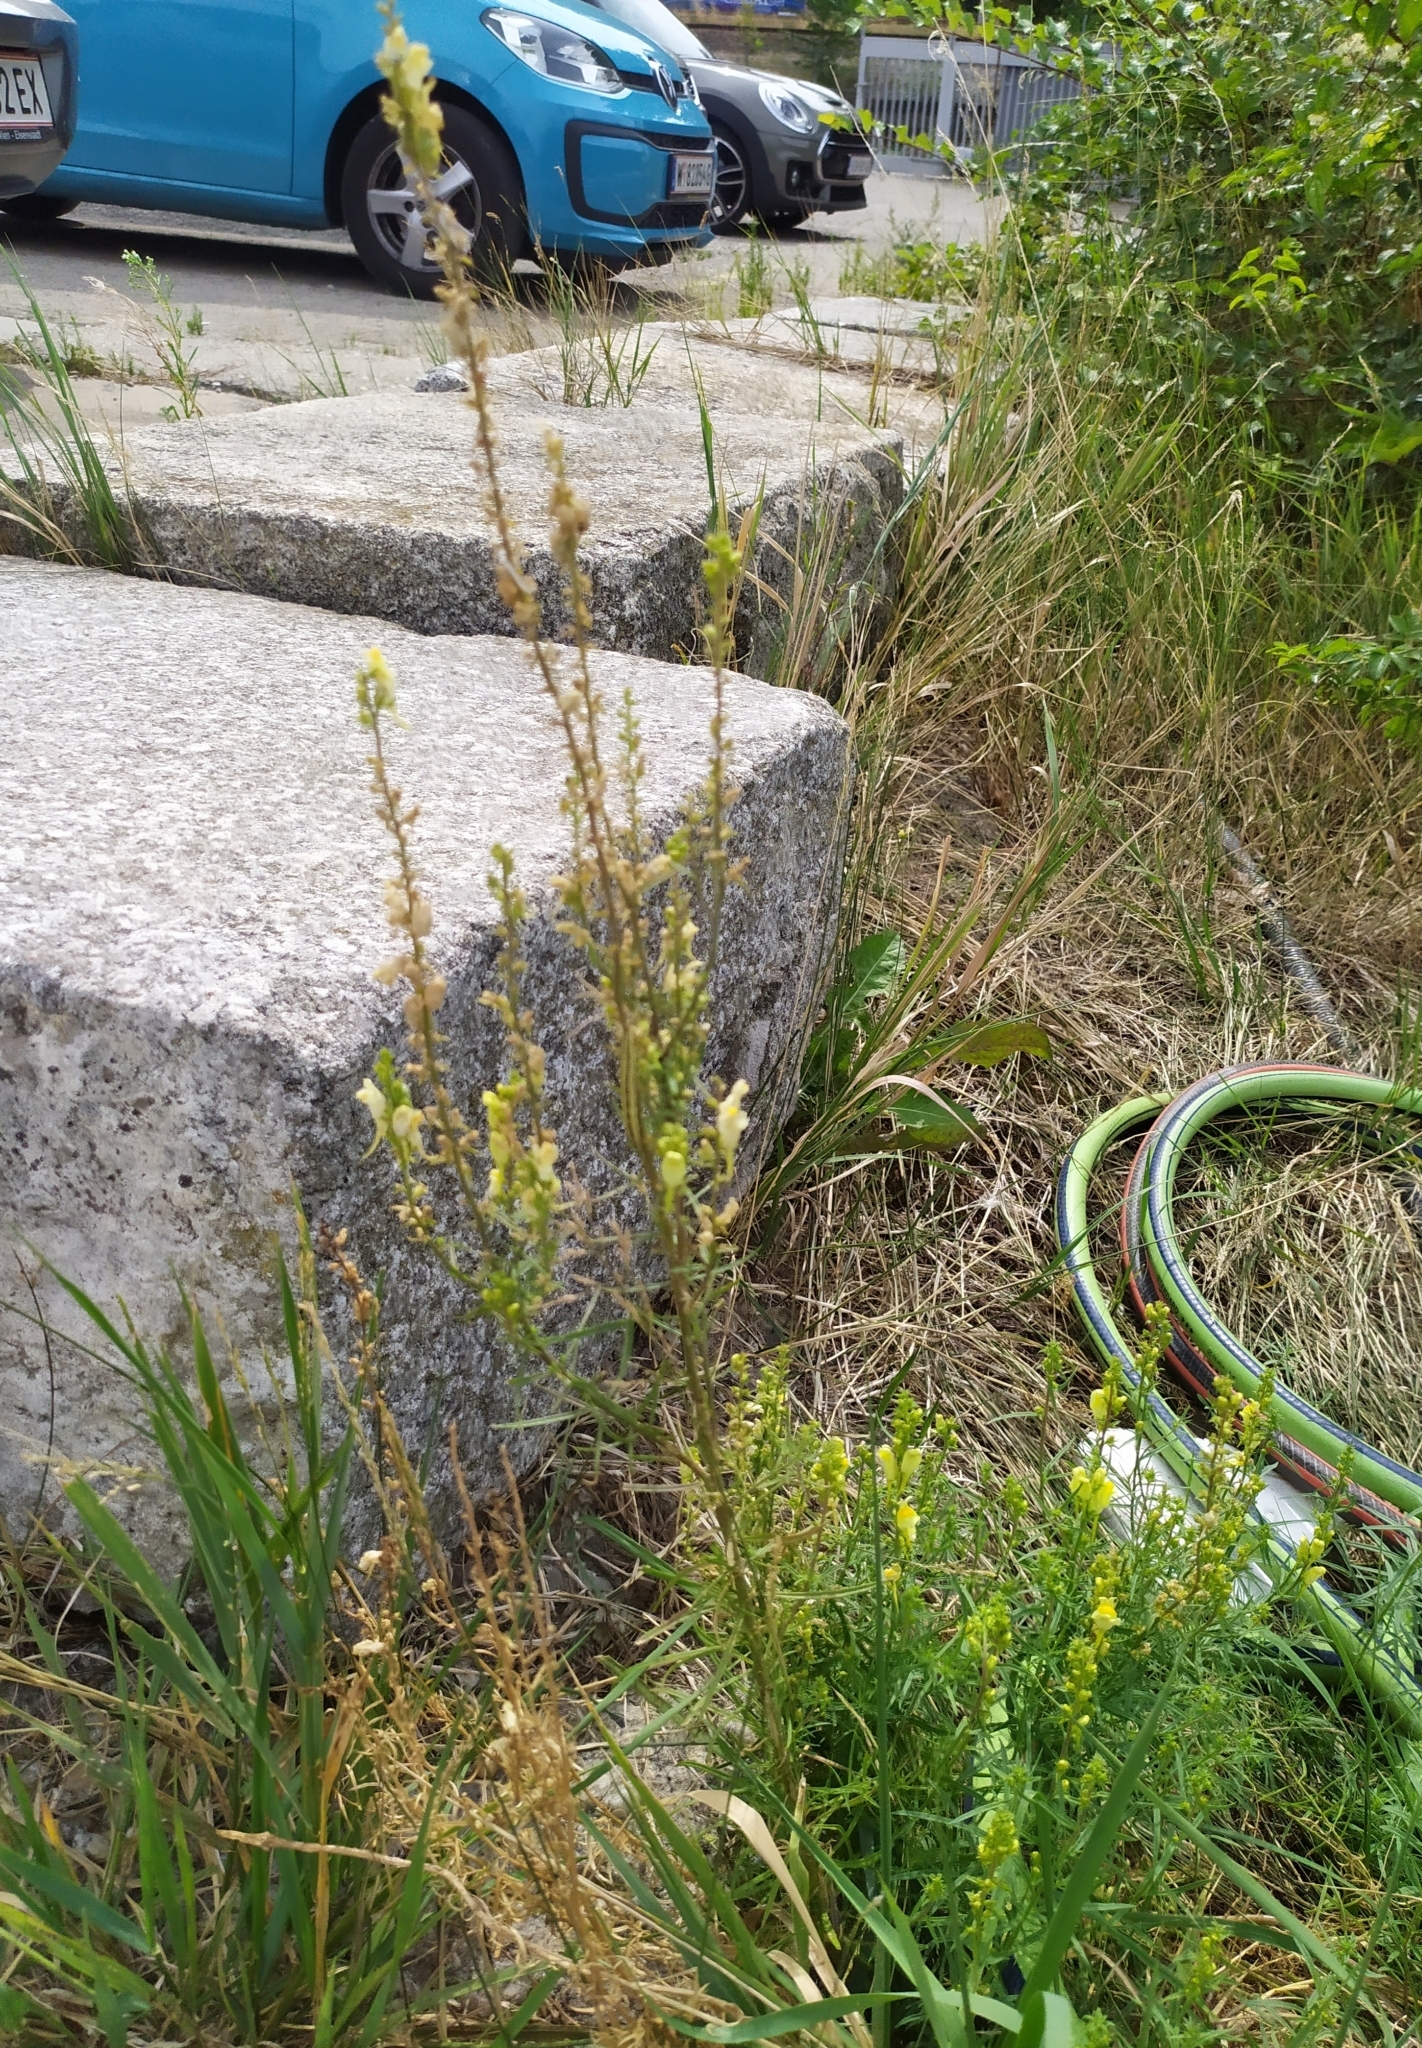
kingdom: Plantae
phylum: Tracheophyta
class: Magnoliopsida
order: Lamiales
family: Plantaginaceae
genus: Linaria
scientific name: Linaria vulgaris
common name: Butter and eggs
